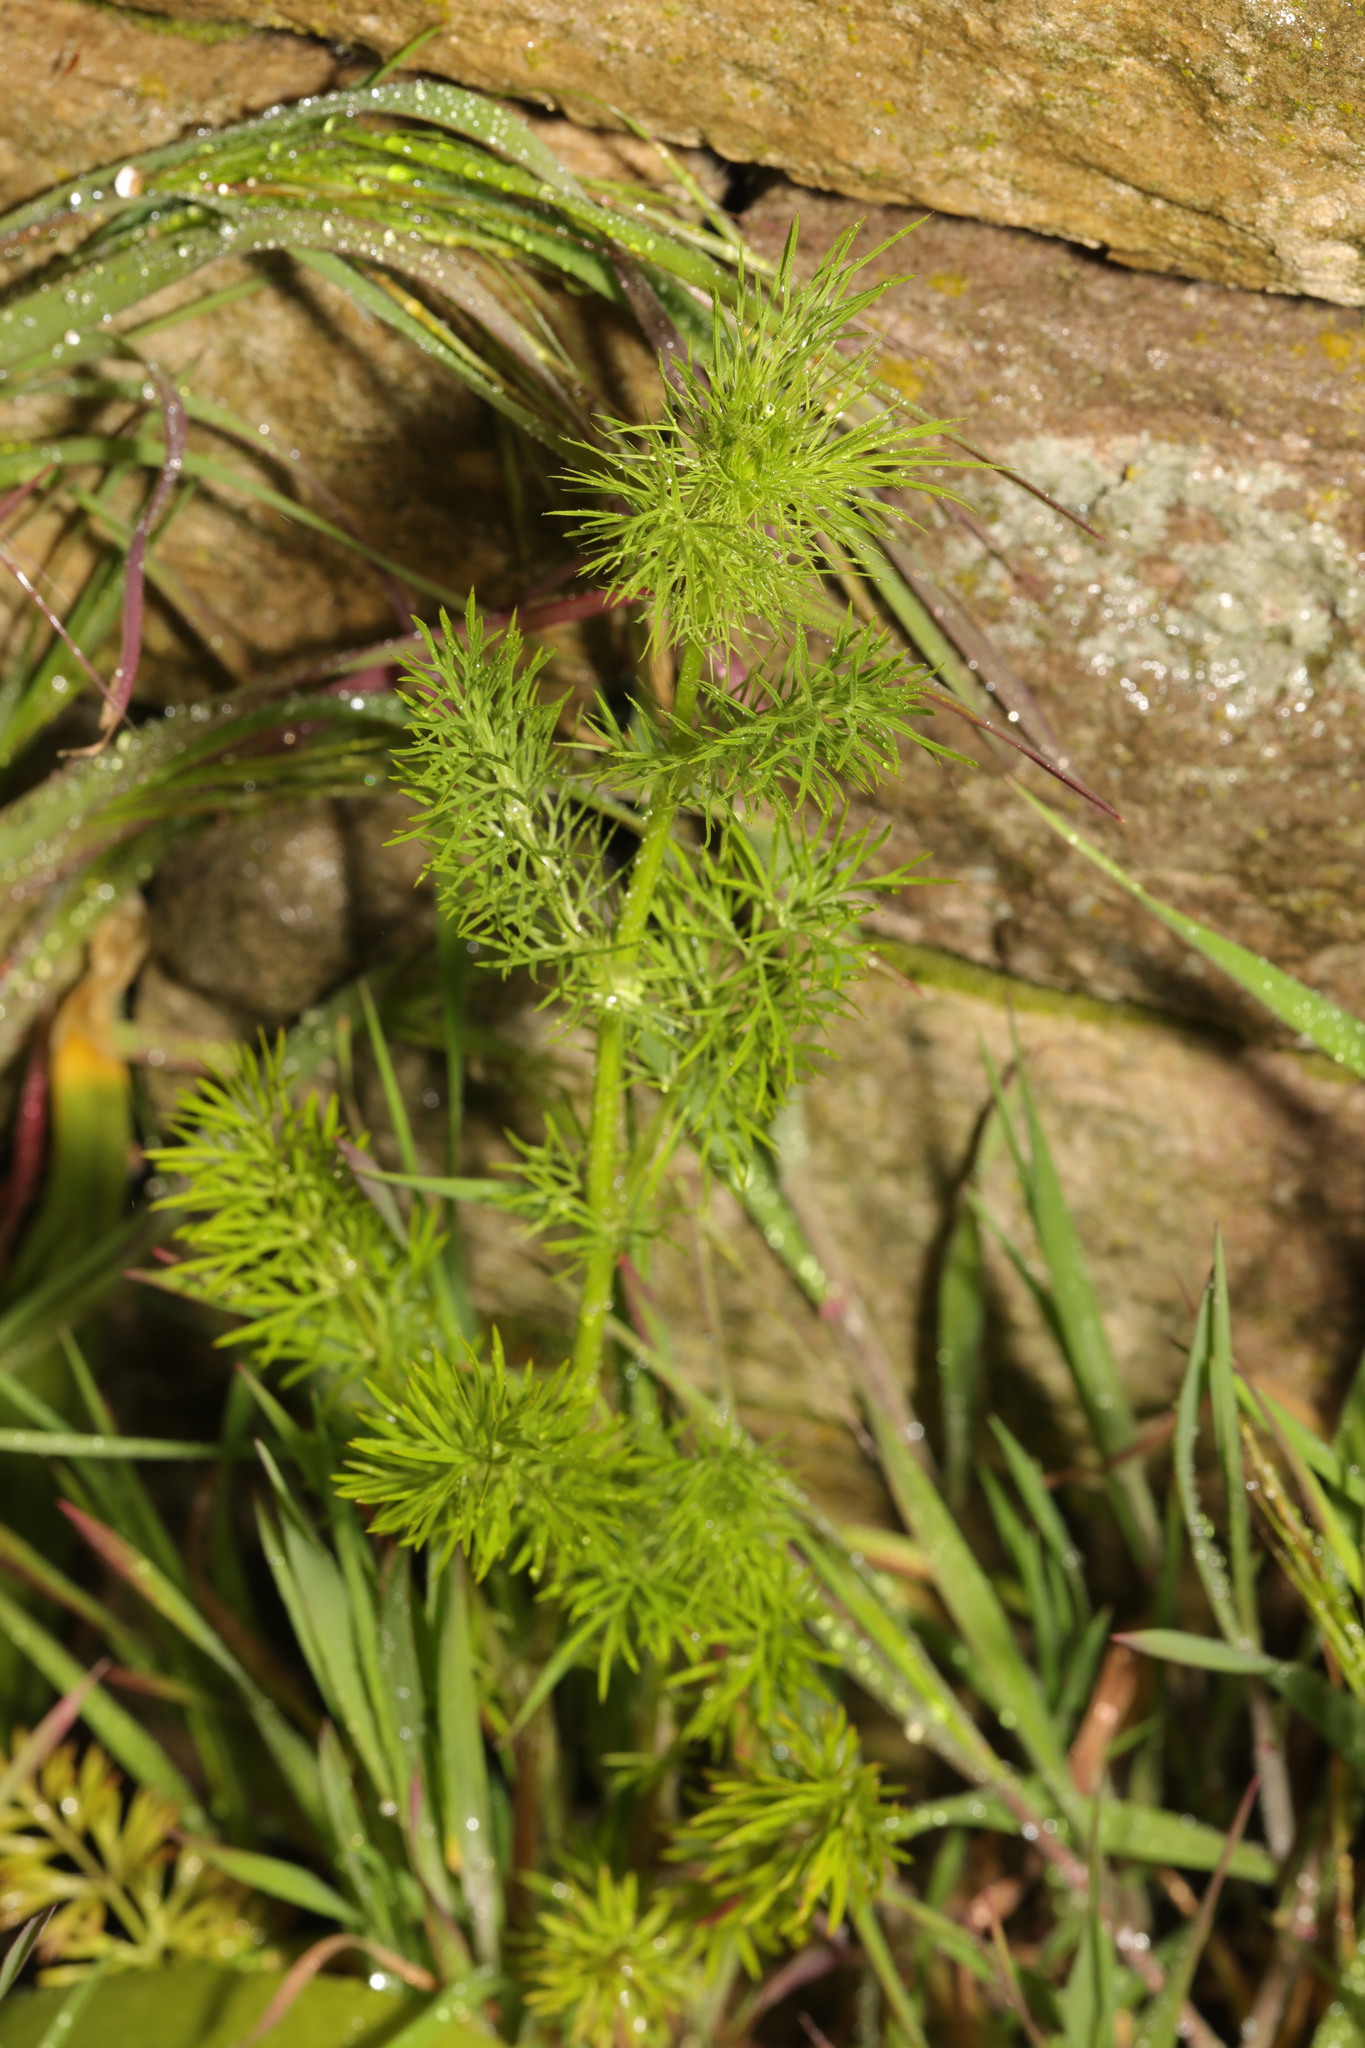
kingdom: Plantae
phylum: Tracheophyta
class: Magnoliopsida
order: Apiales
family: Apiaceae
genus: Foeniculum
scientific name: Foeniculum vulgare
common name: Fennel
